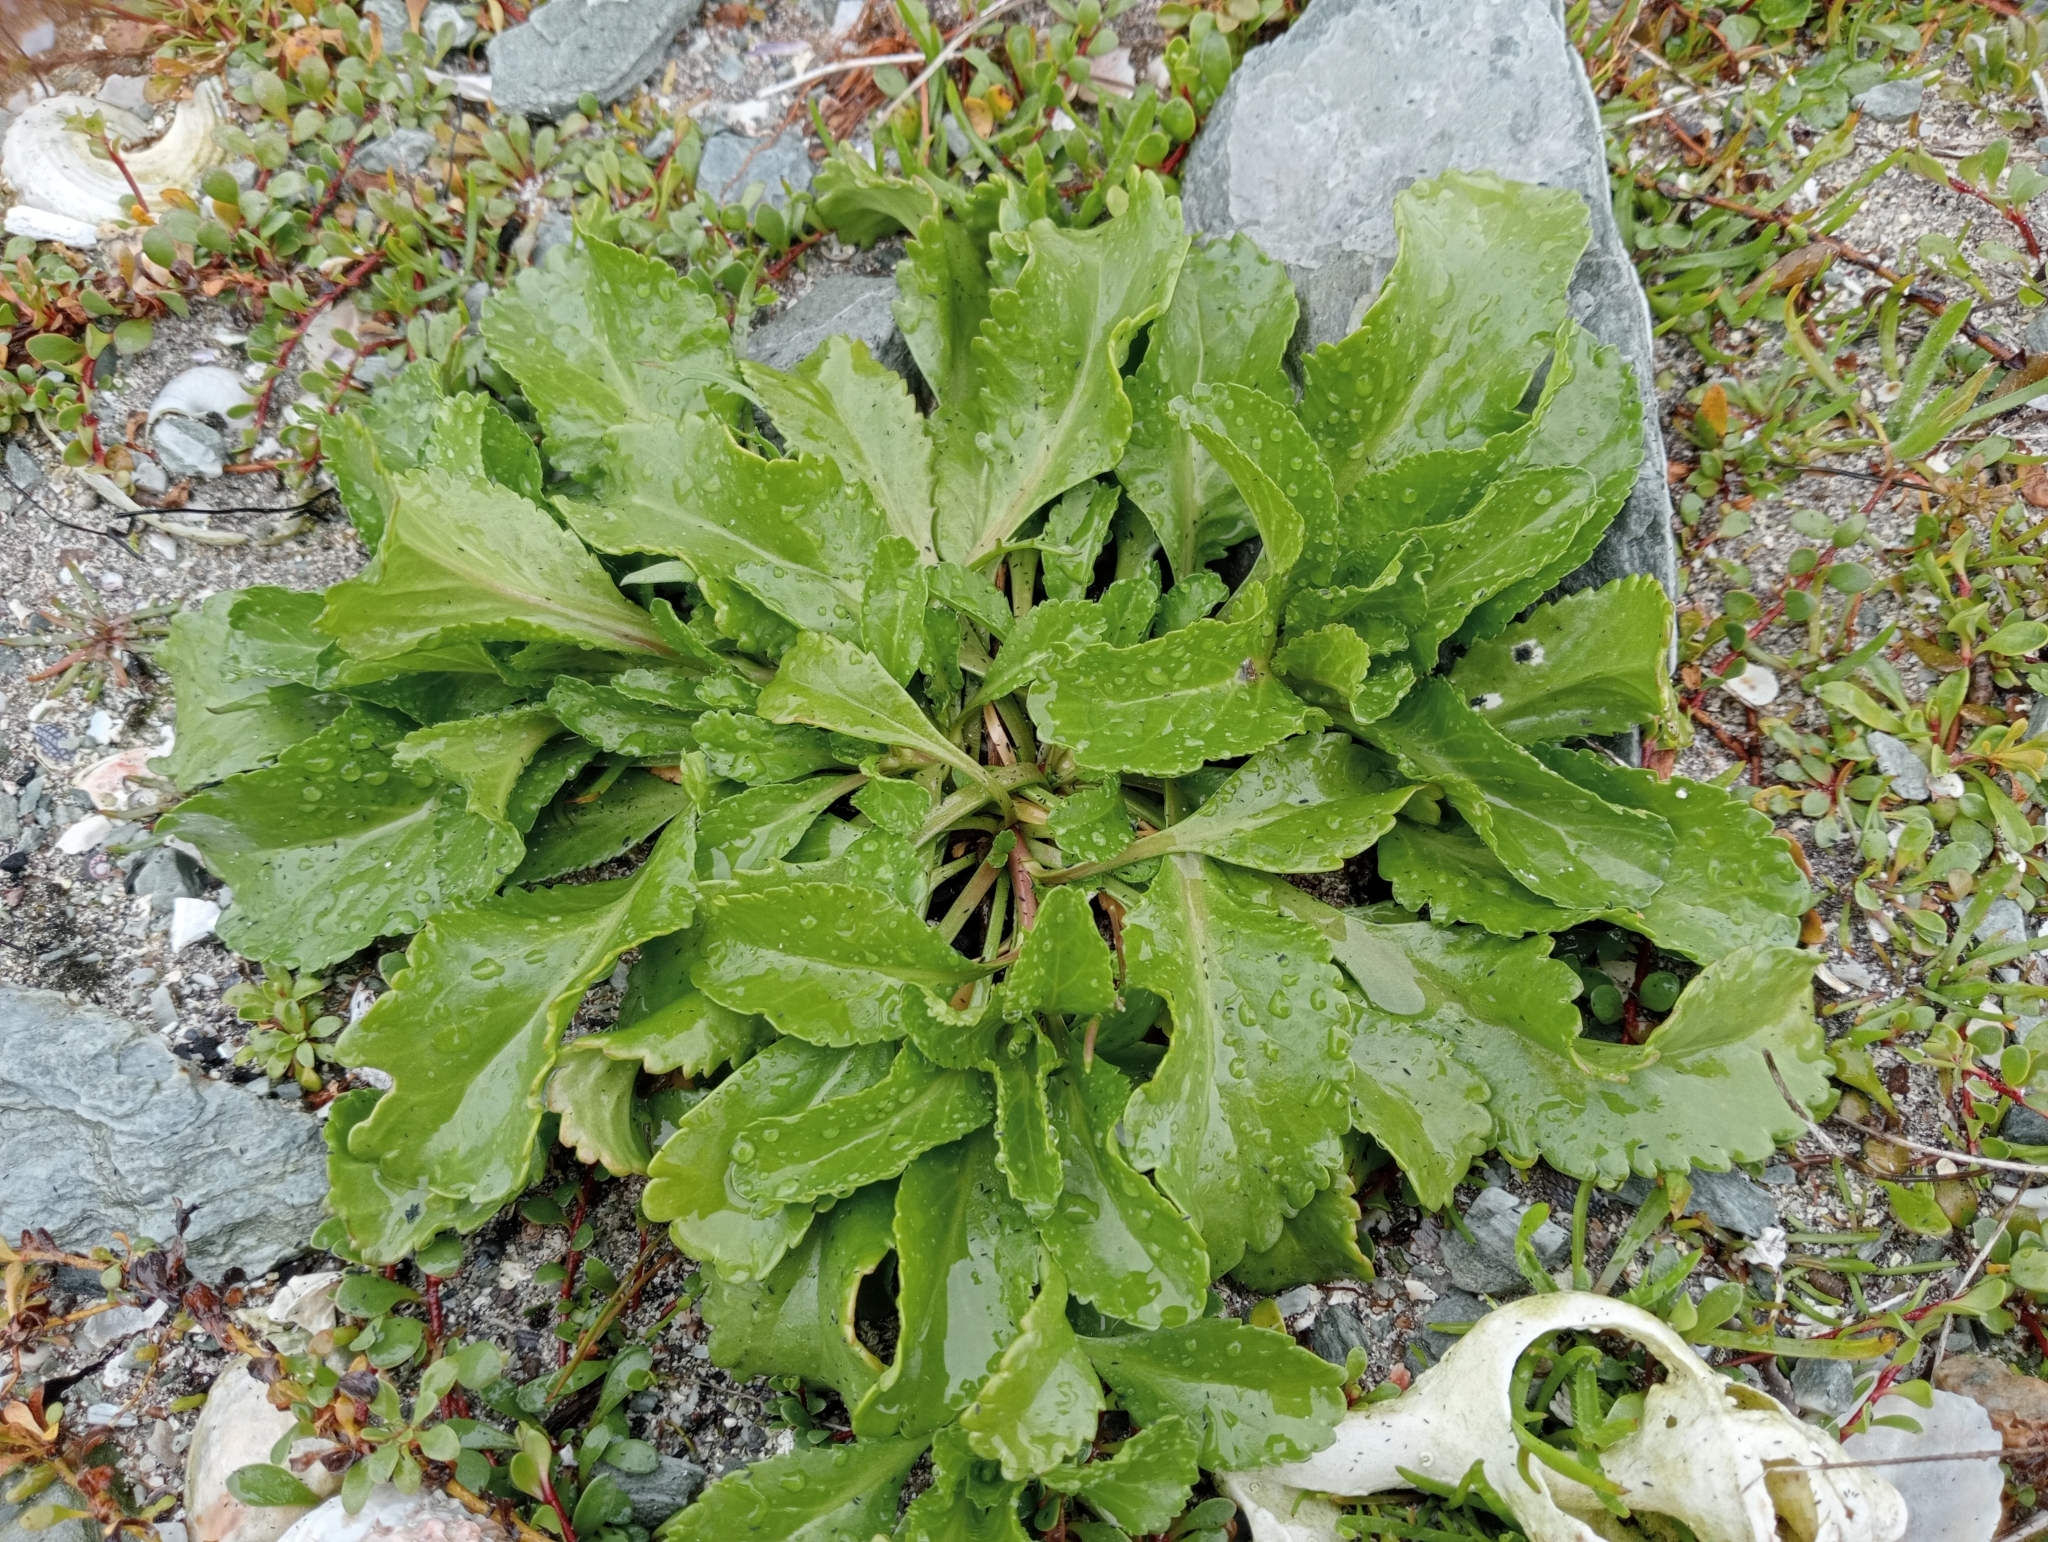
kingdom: Plantae
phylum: Tracheophyta
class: Magnoliopsida
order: Brassicales
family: Brassicaceae
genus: Lepidium
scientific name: Lepidium rekohuense
